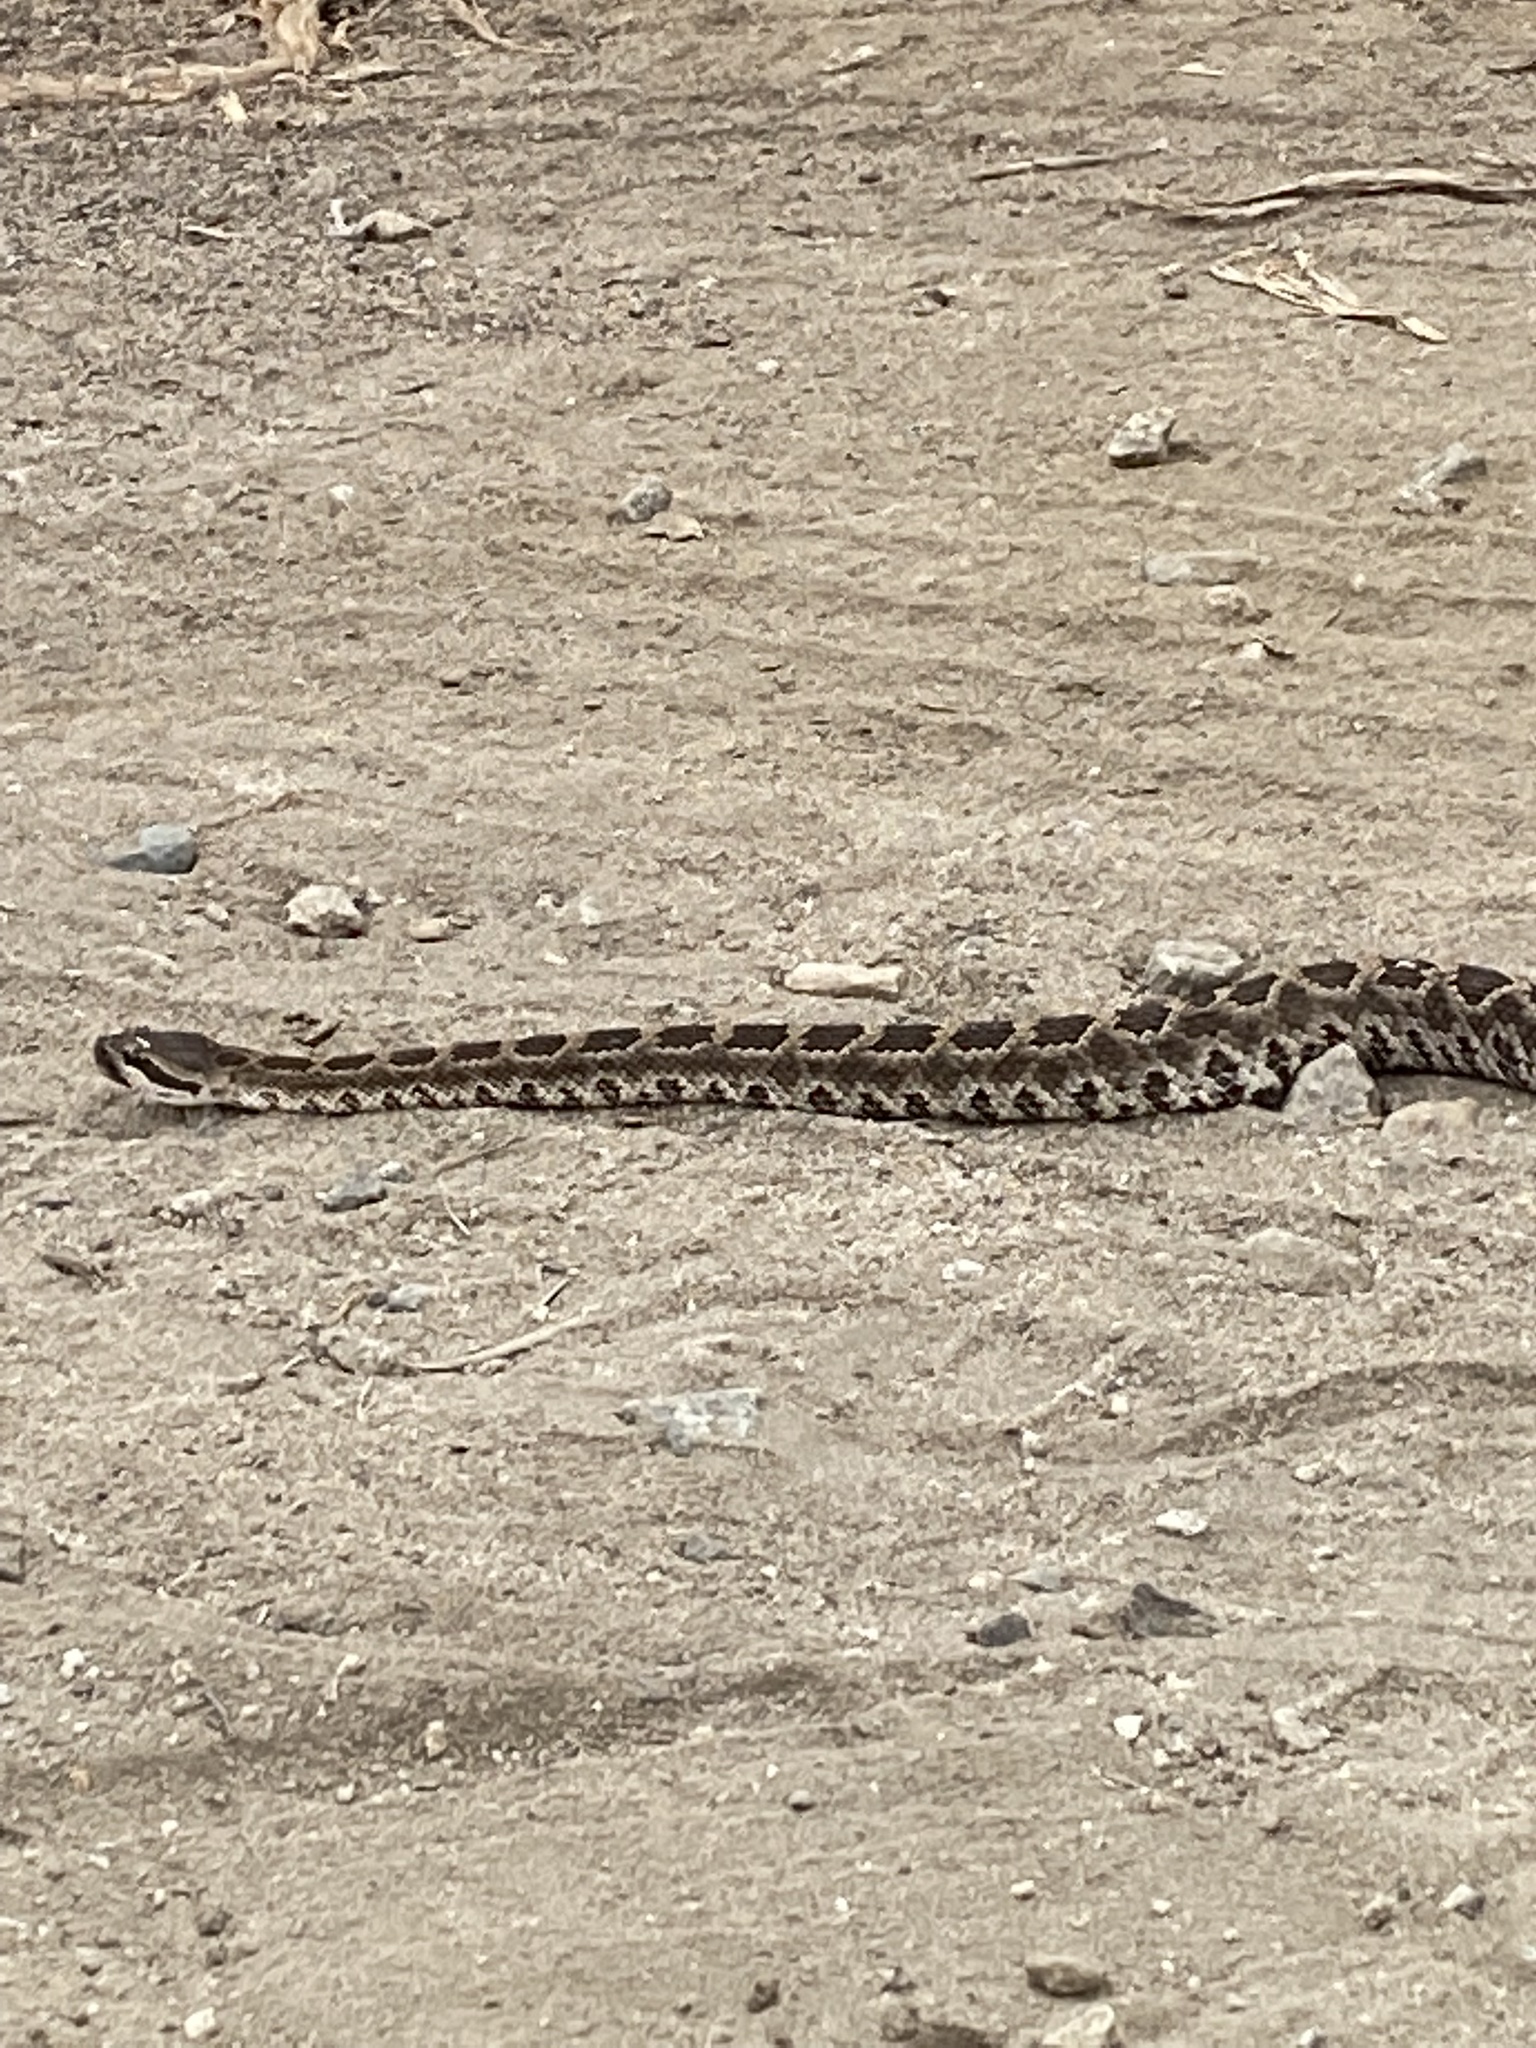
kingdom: Animalia
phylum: Chordata
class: Squamata
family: Viperidae
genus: Crotalus
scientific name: Crotalus oreganus
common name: Abyssus
